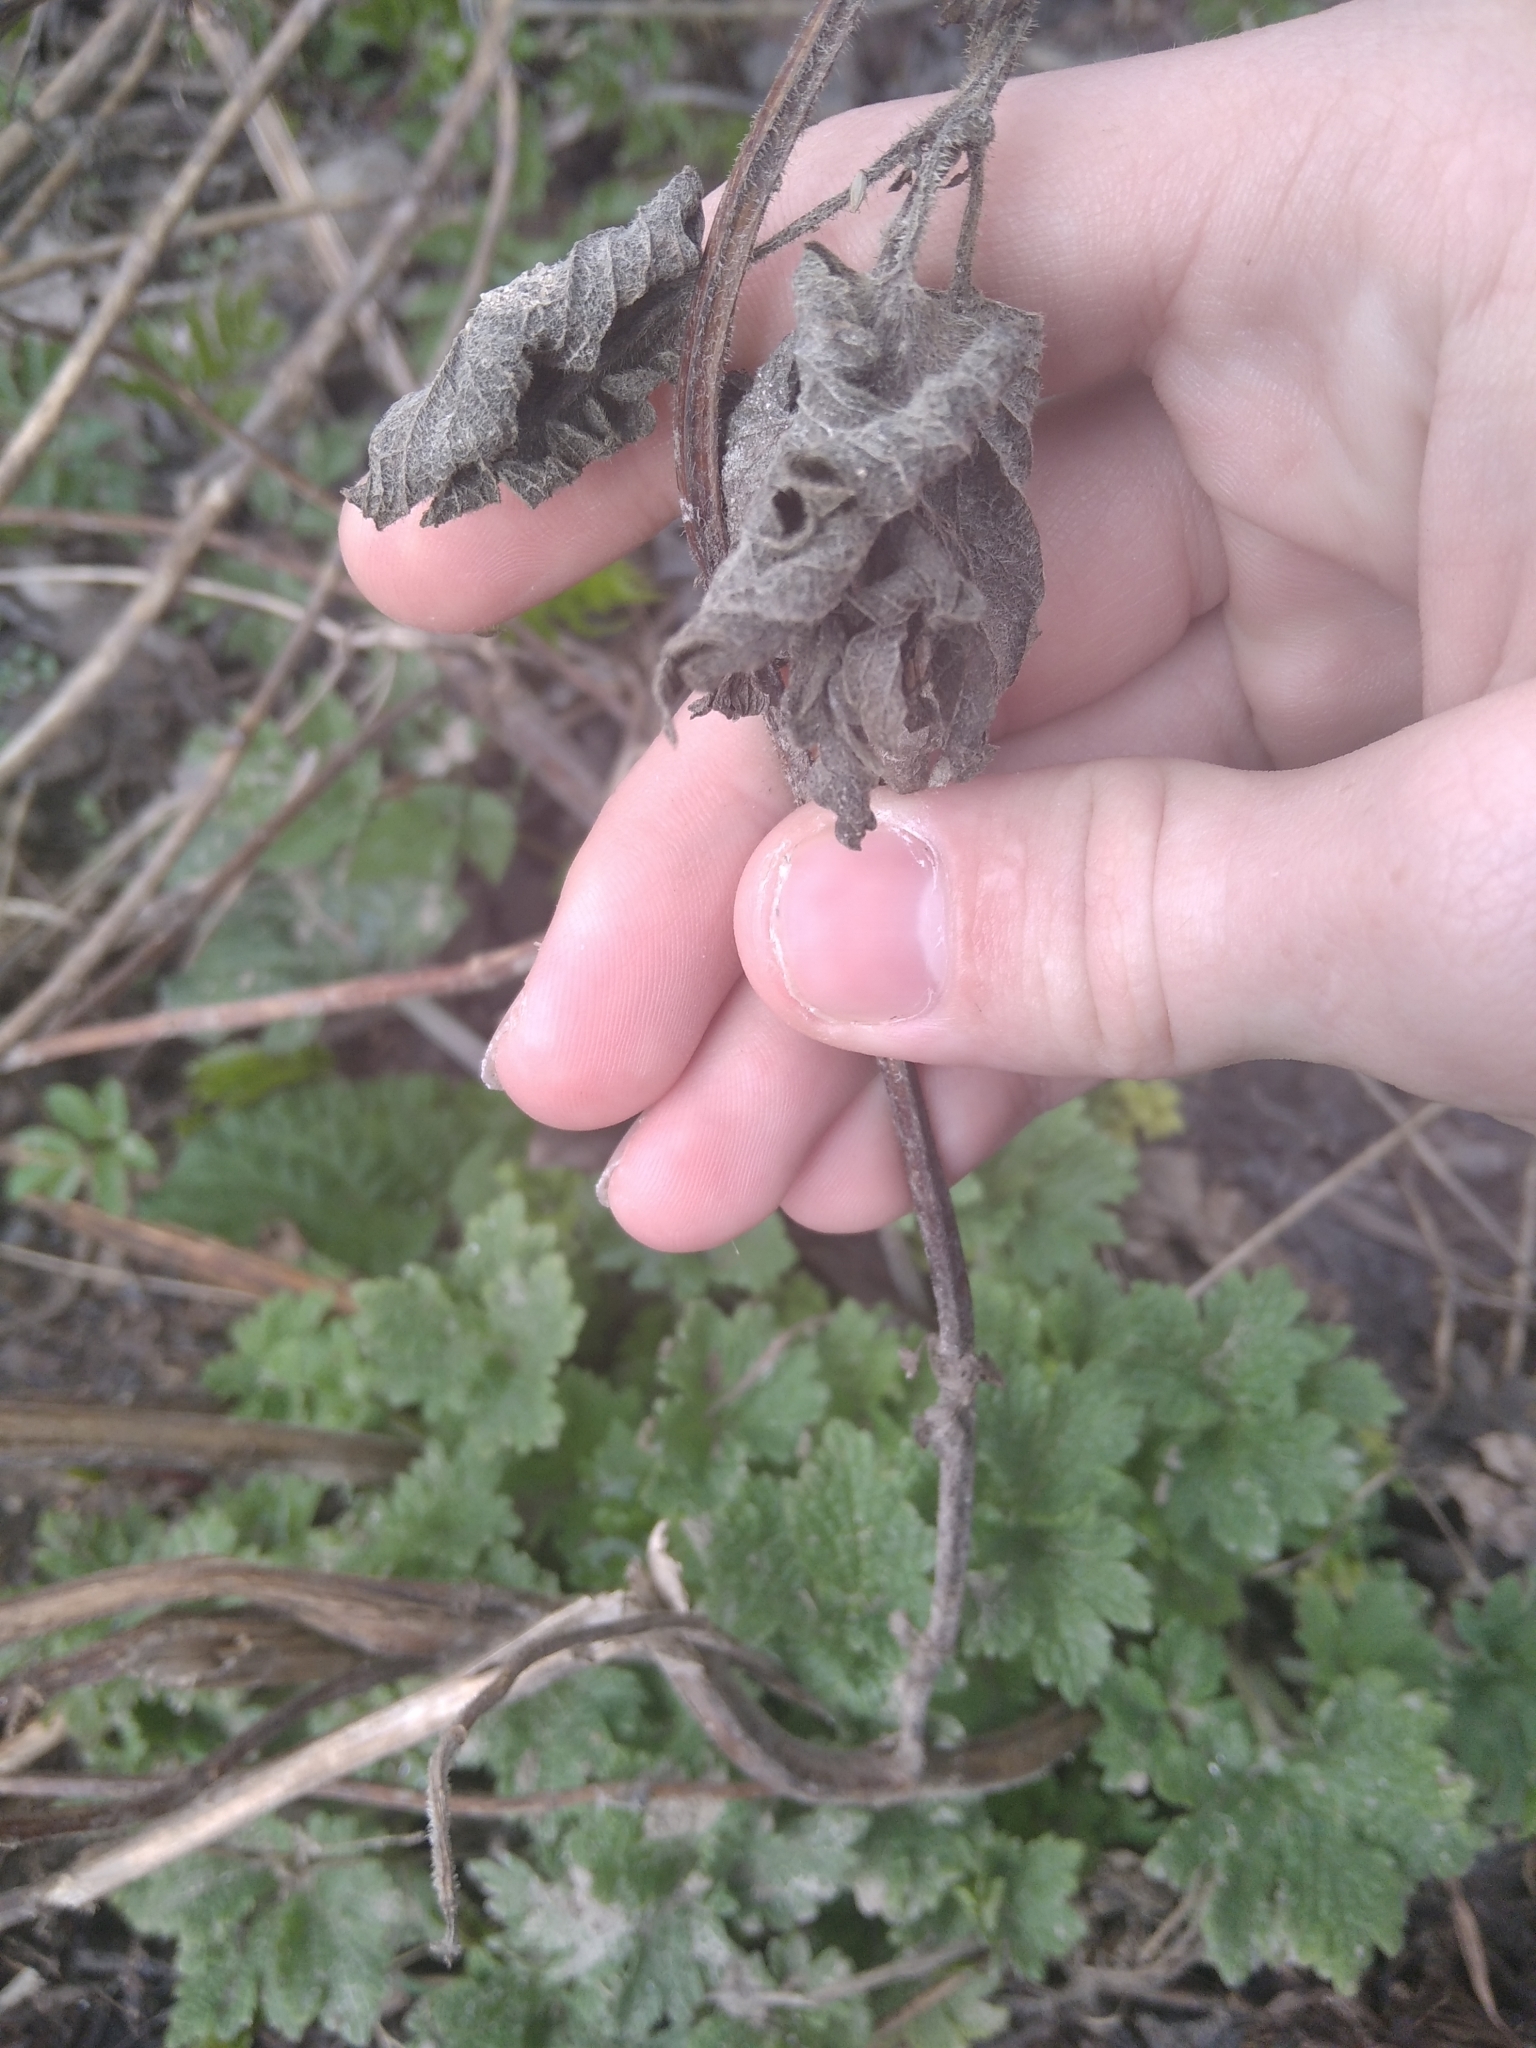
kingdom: Plantae
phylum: Tracheophyta
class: Magnoliopsida
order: Lamiales
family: Lamiaceae
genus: Leonurus
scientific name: Leonurus quinquelobatus
